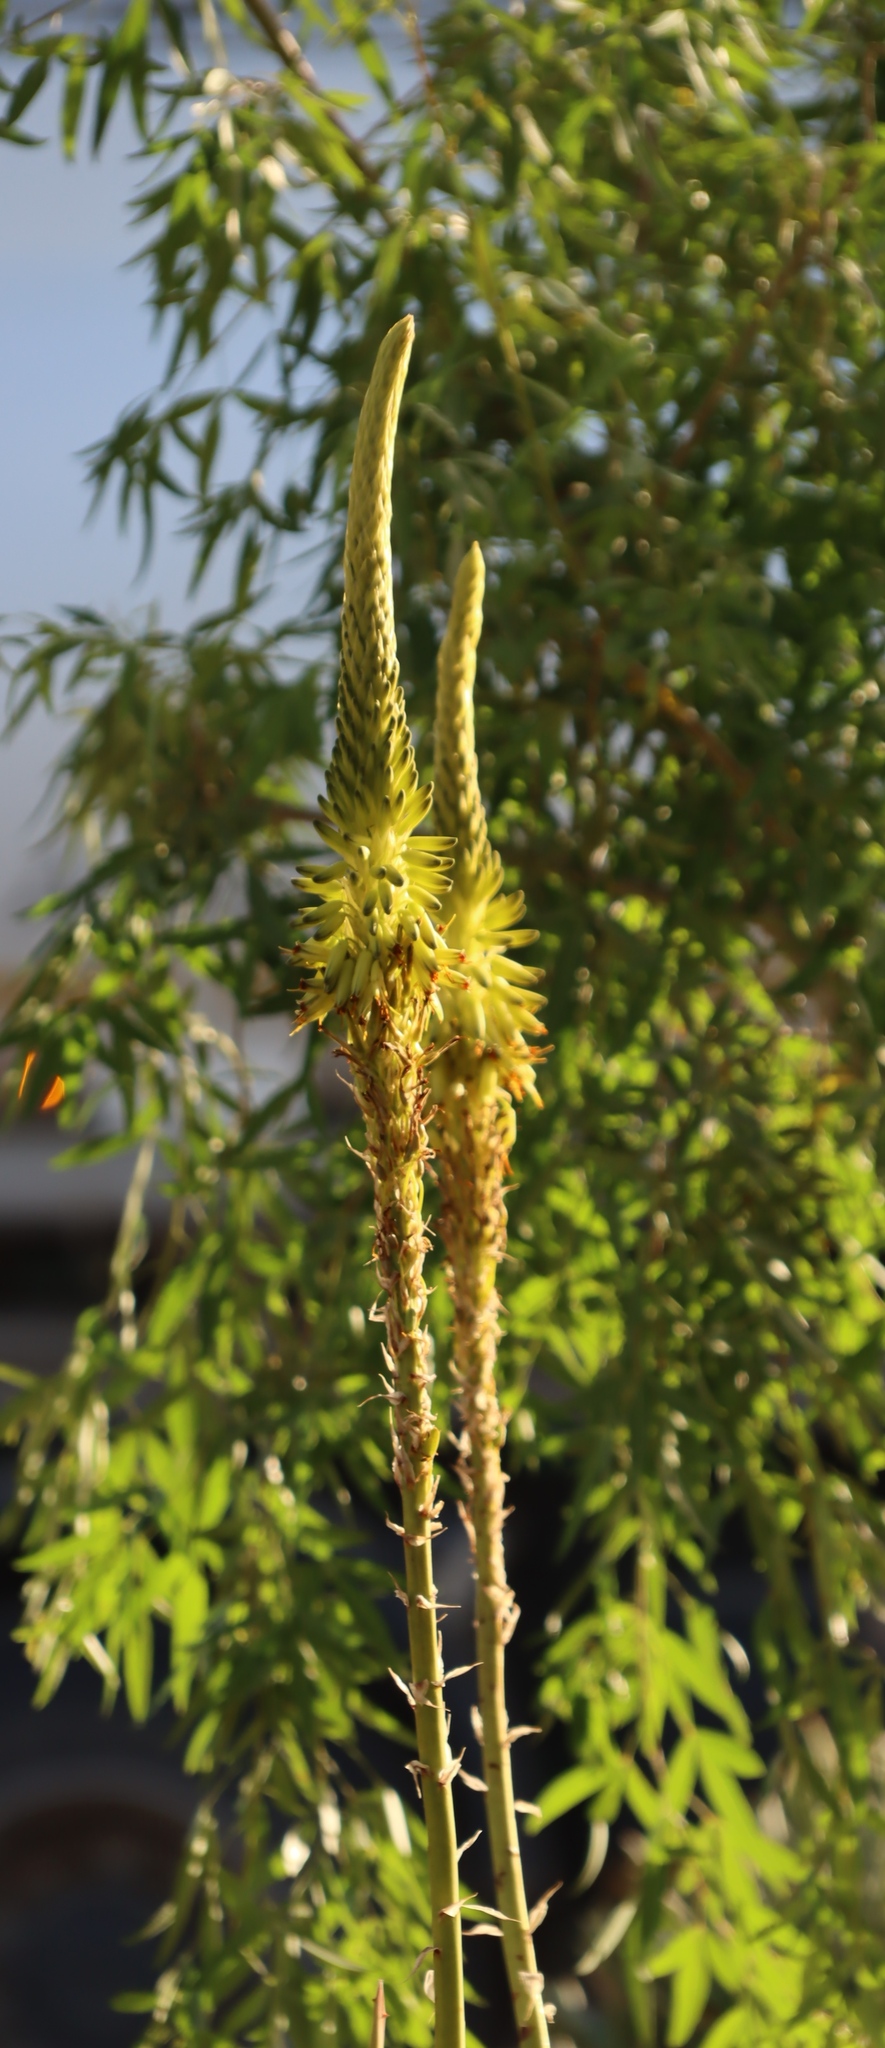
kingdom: Plantae
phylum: Tracheophyta
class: Liliopsida
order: Asparagales
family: Asphodelaceae
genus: Aloe
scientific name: Aloe gariepensis
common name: Orange river aloe
